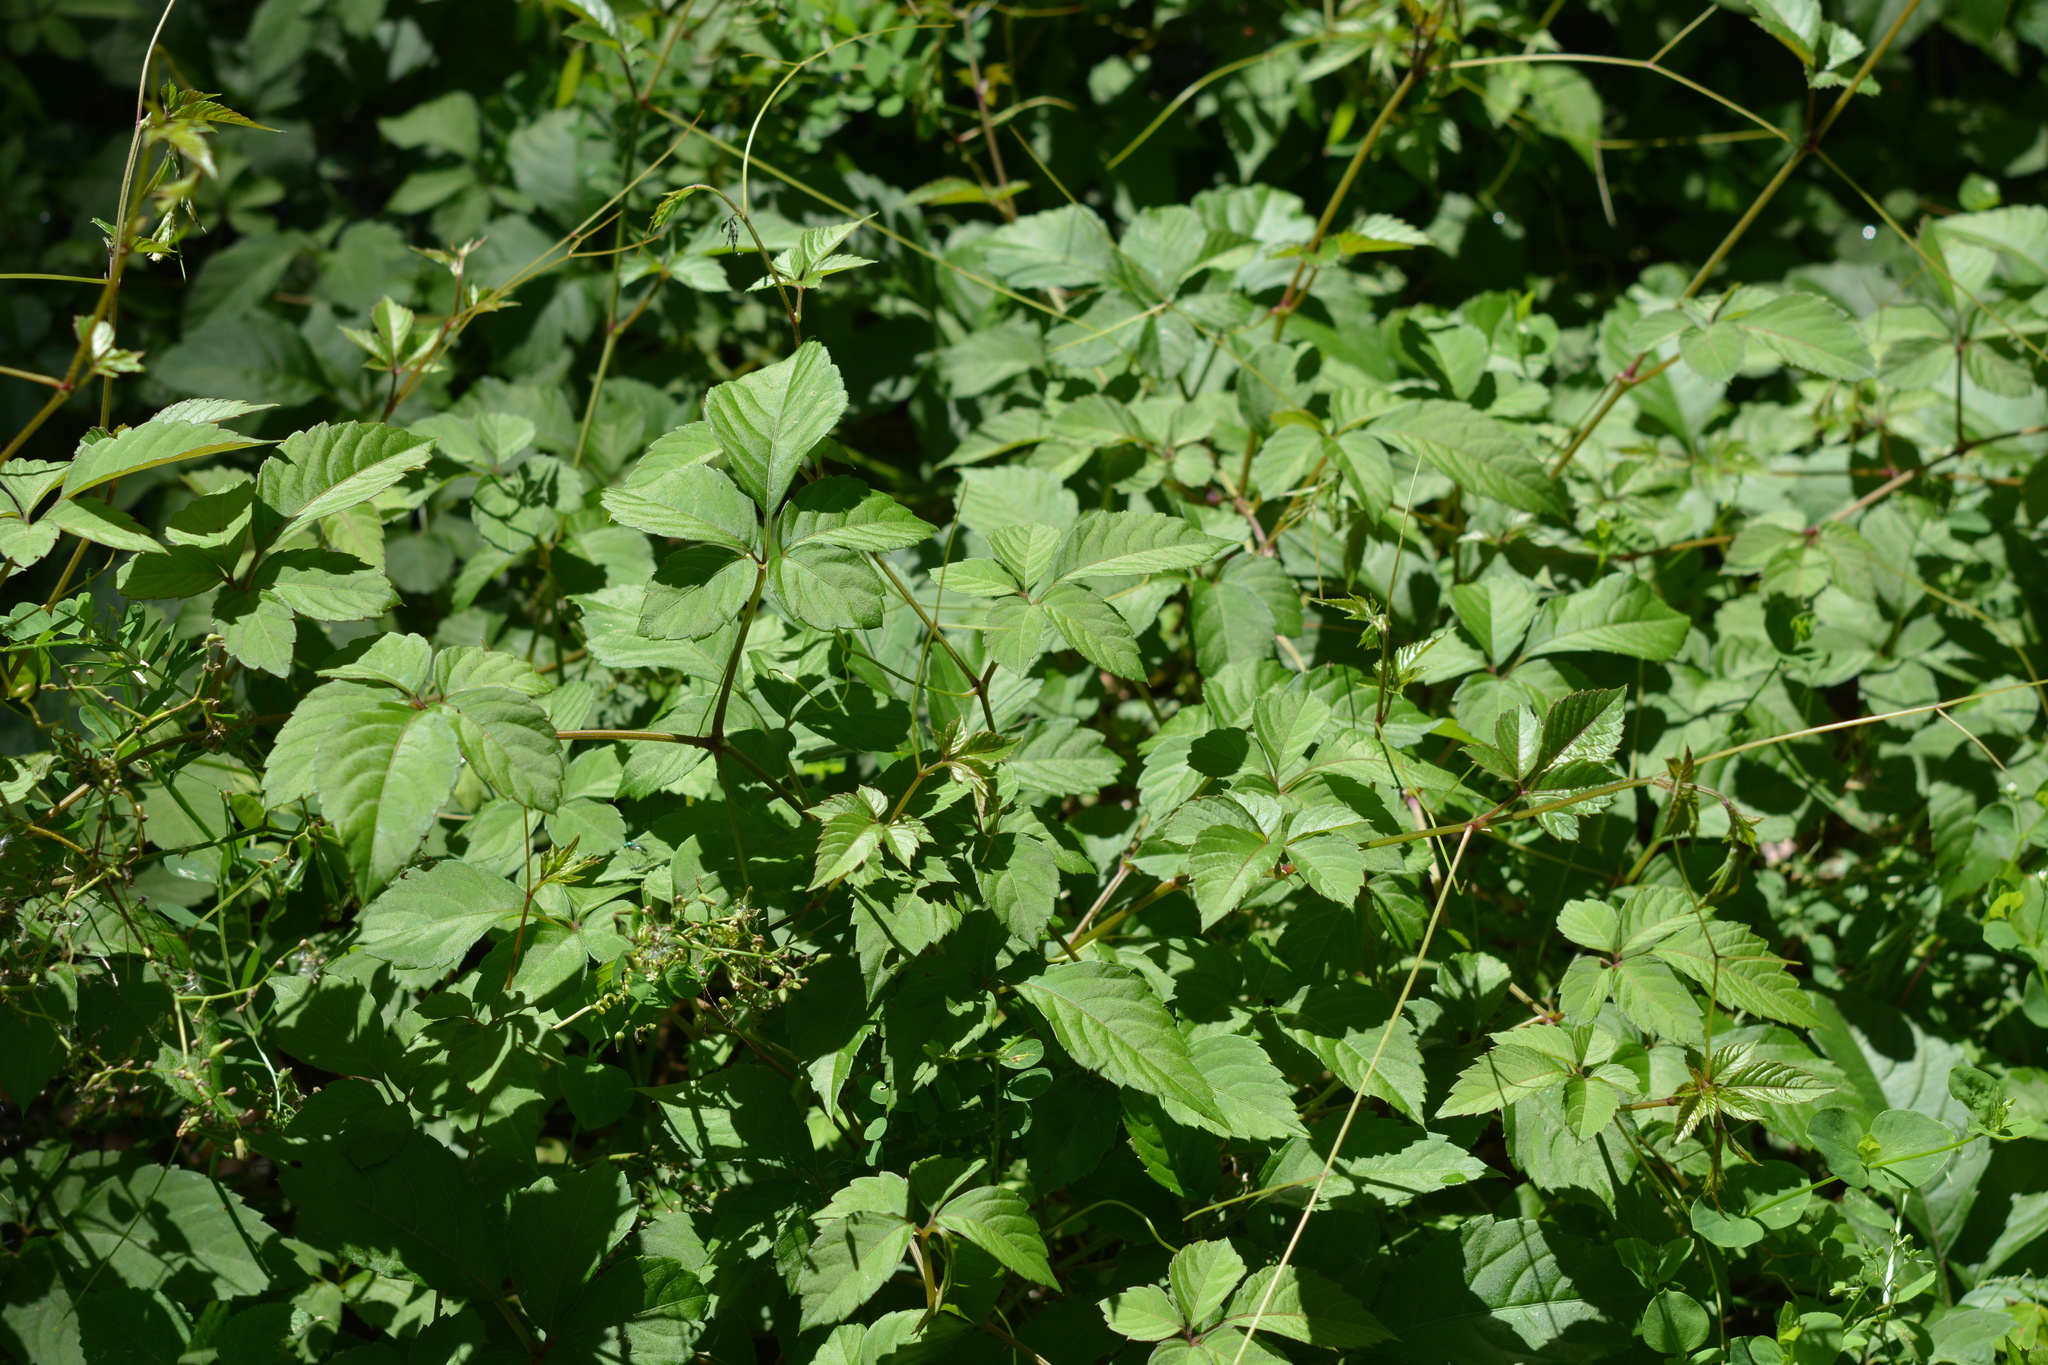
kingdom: Plantae
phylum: Tracheophyta
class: Magnoliopsida
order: Vitales
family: Vitaceae
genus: Causonis
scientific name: Causonis japonica
